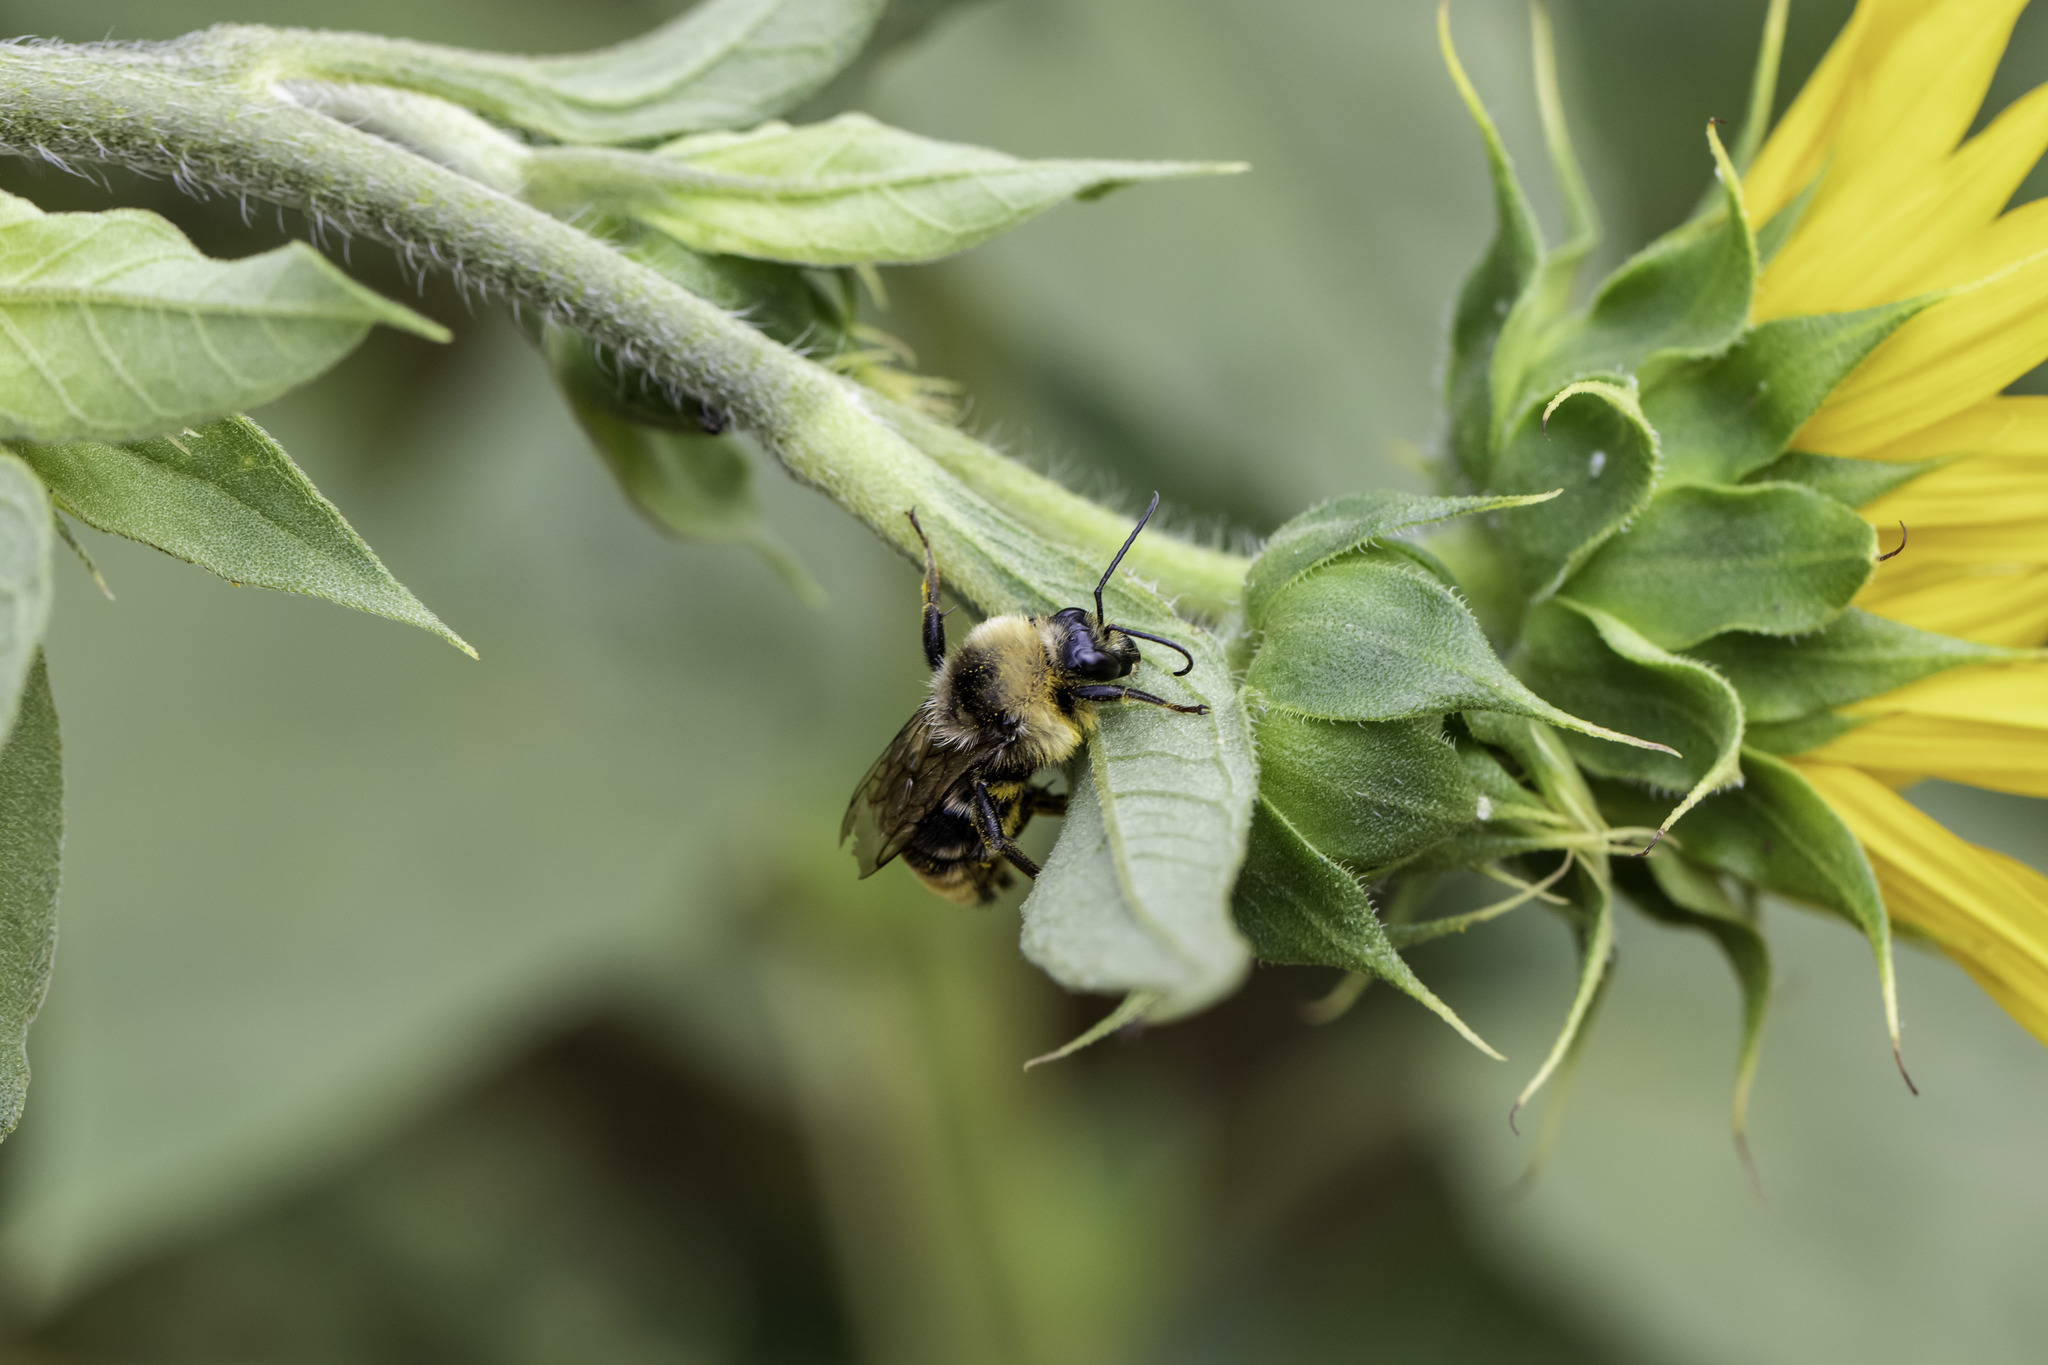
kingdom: Animalia
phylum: Arthropoda
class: Insecta
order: Hymenoptera
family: Apidae
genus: Bombus
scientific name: Bombus californicus
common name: California bumble bee
